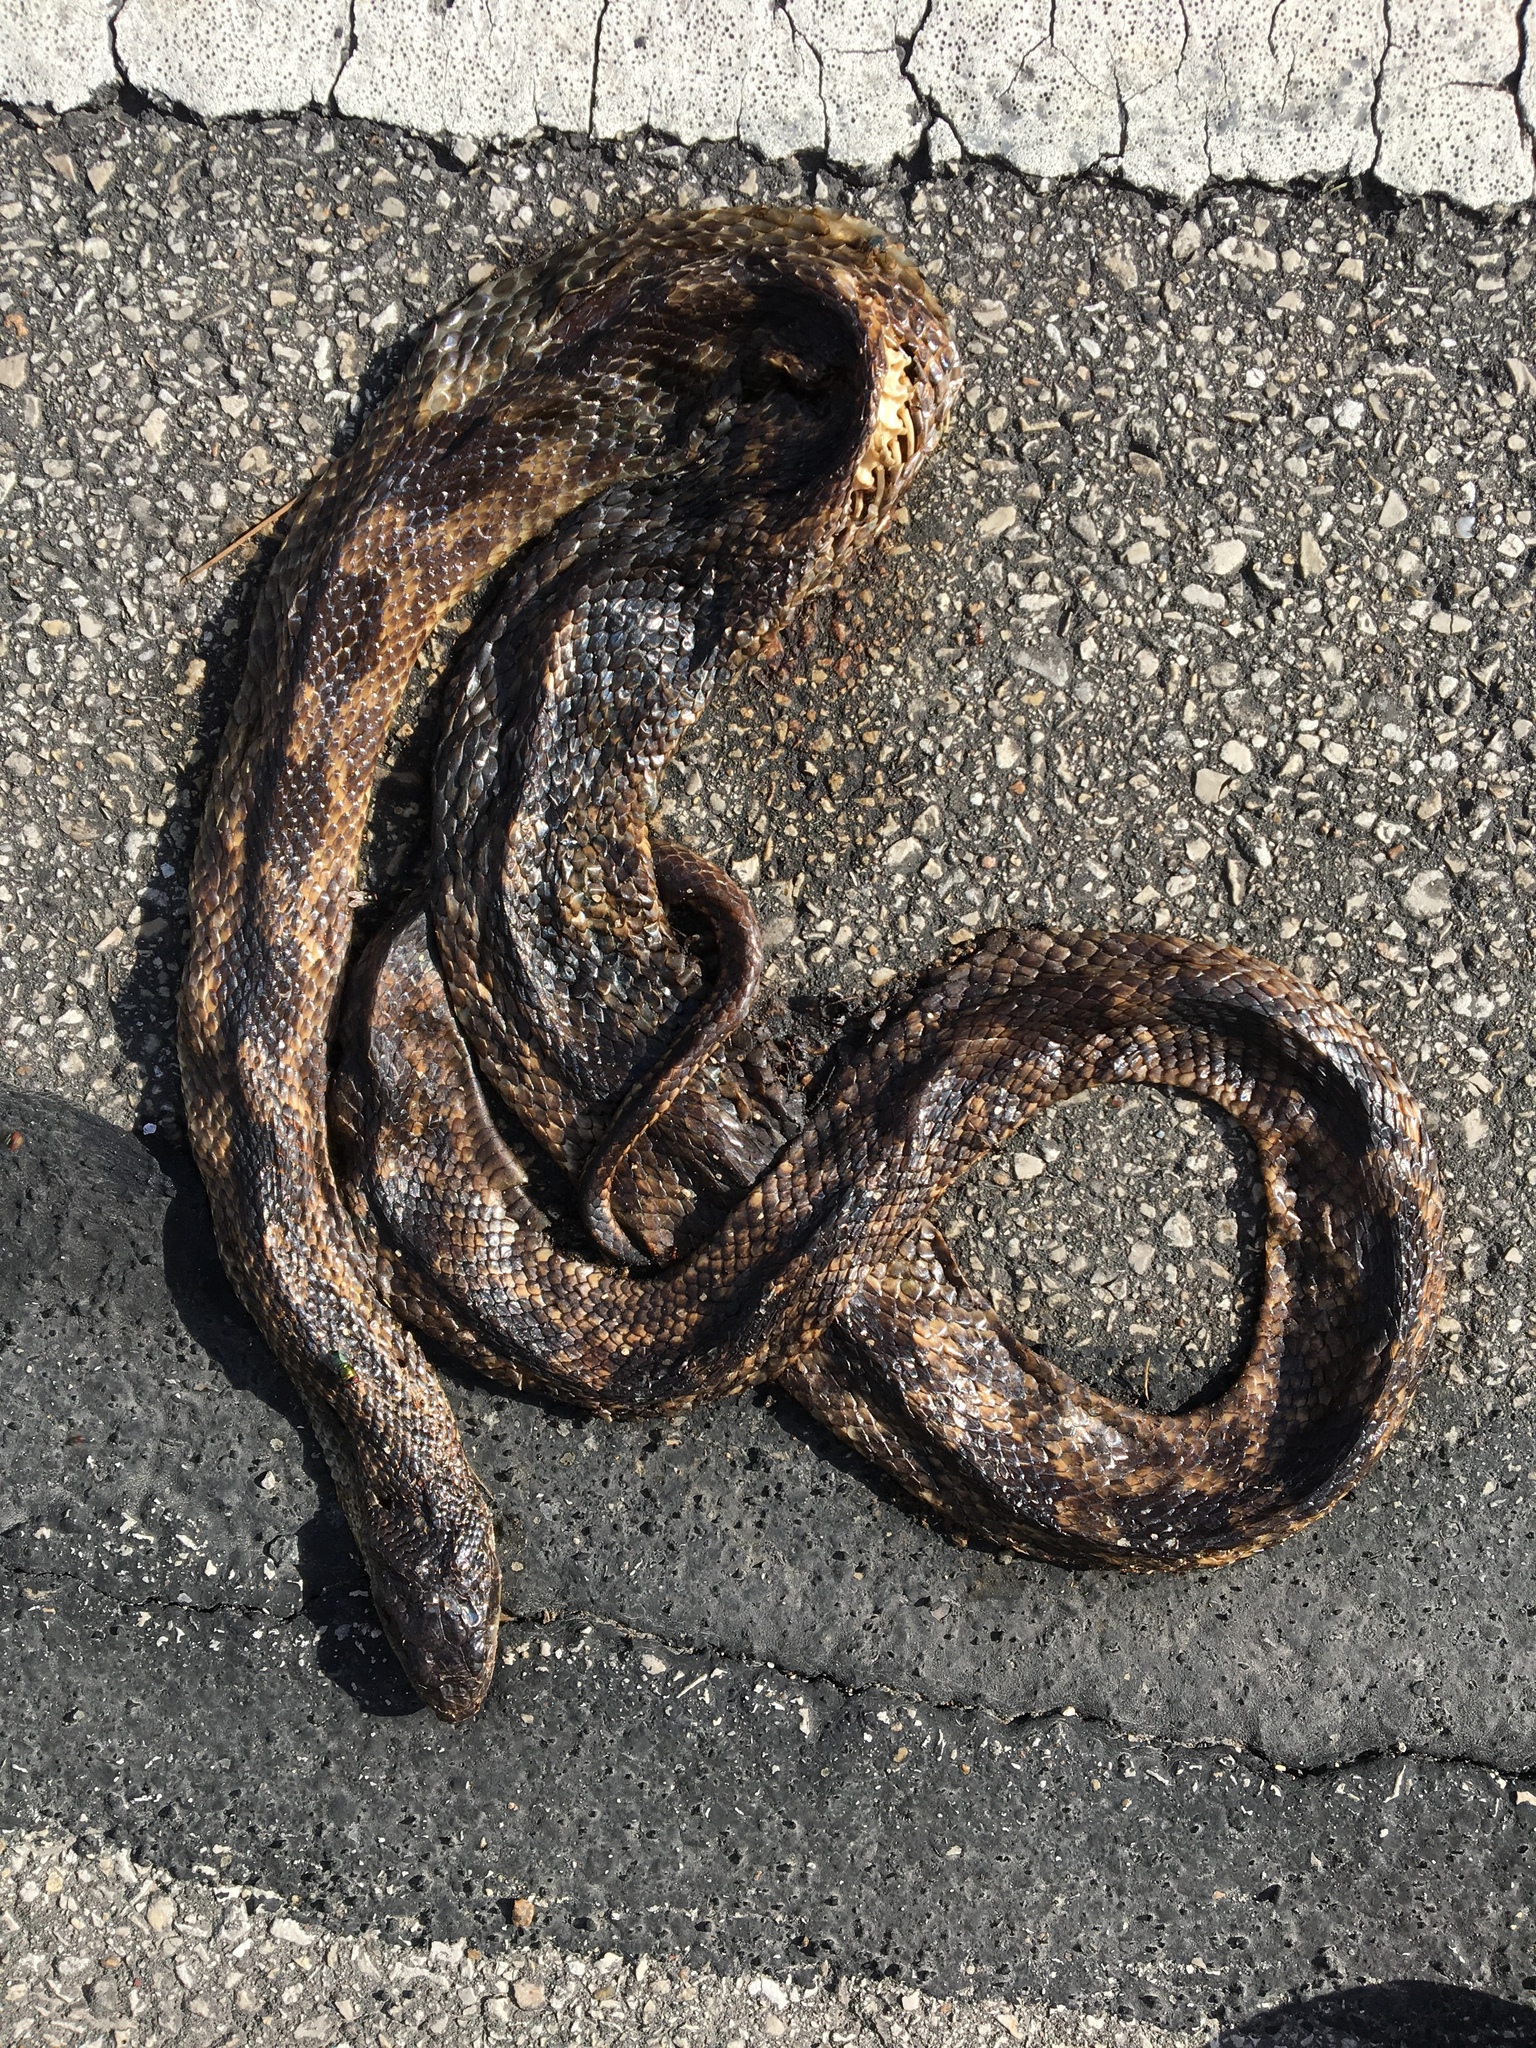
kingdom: Animalia
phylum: Chordata
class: Squamata
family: Colubridae
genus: Pantherophis
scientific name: Pantherophis obsoletus
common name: Black rat snake
